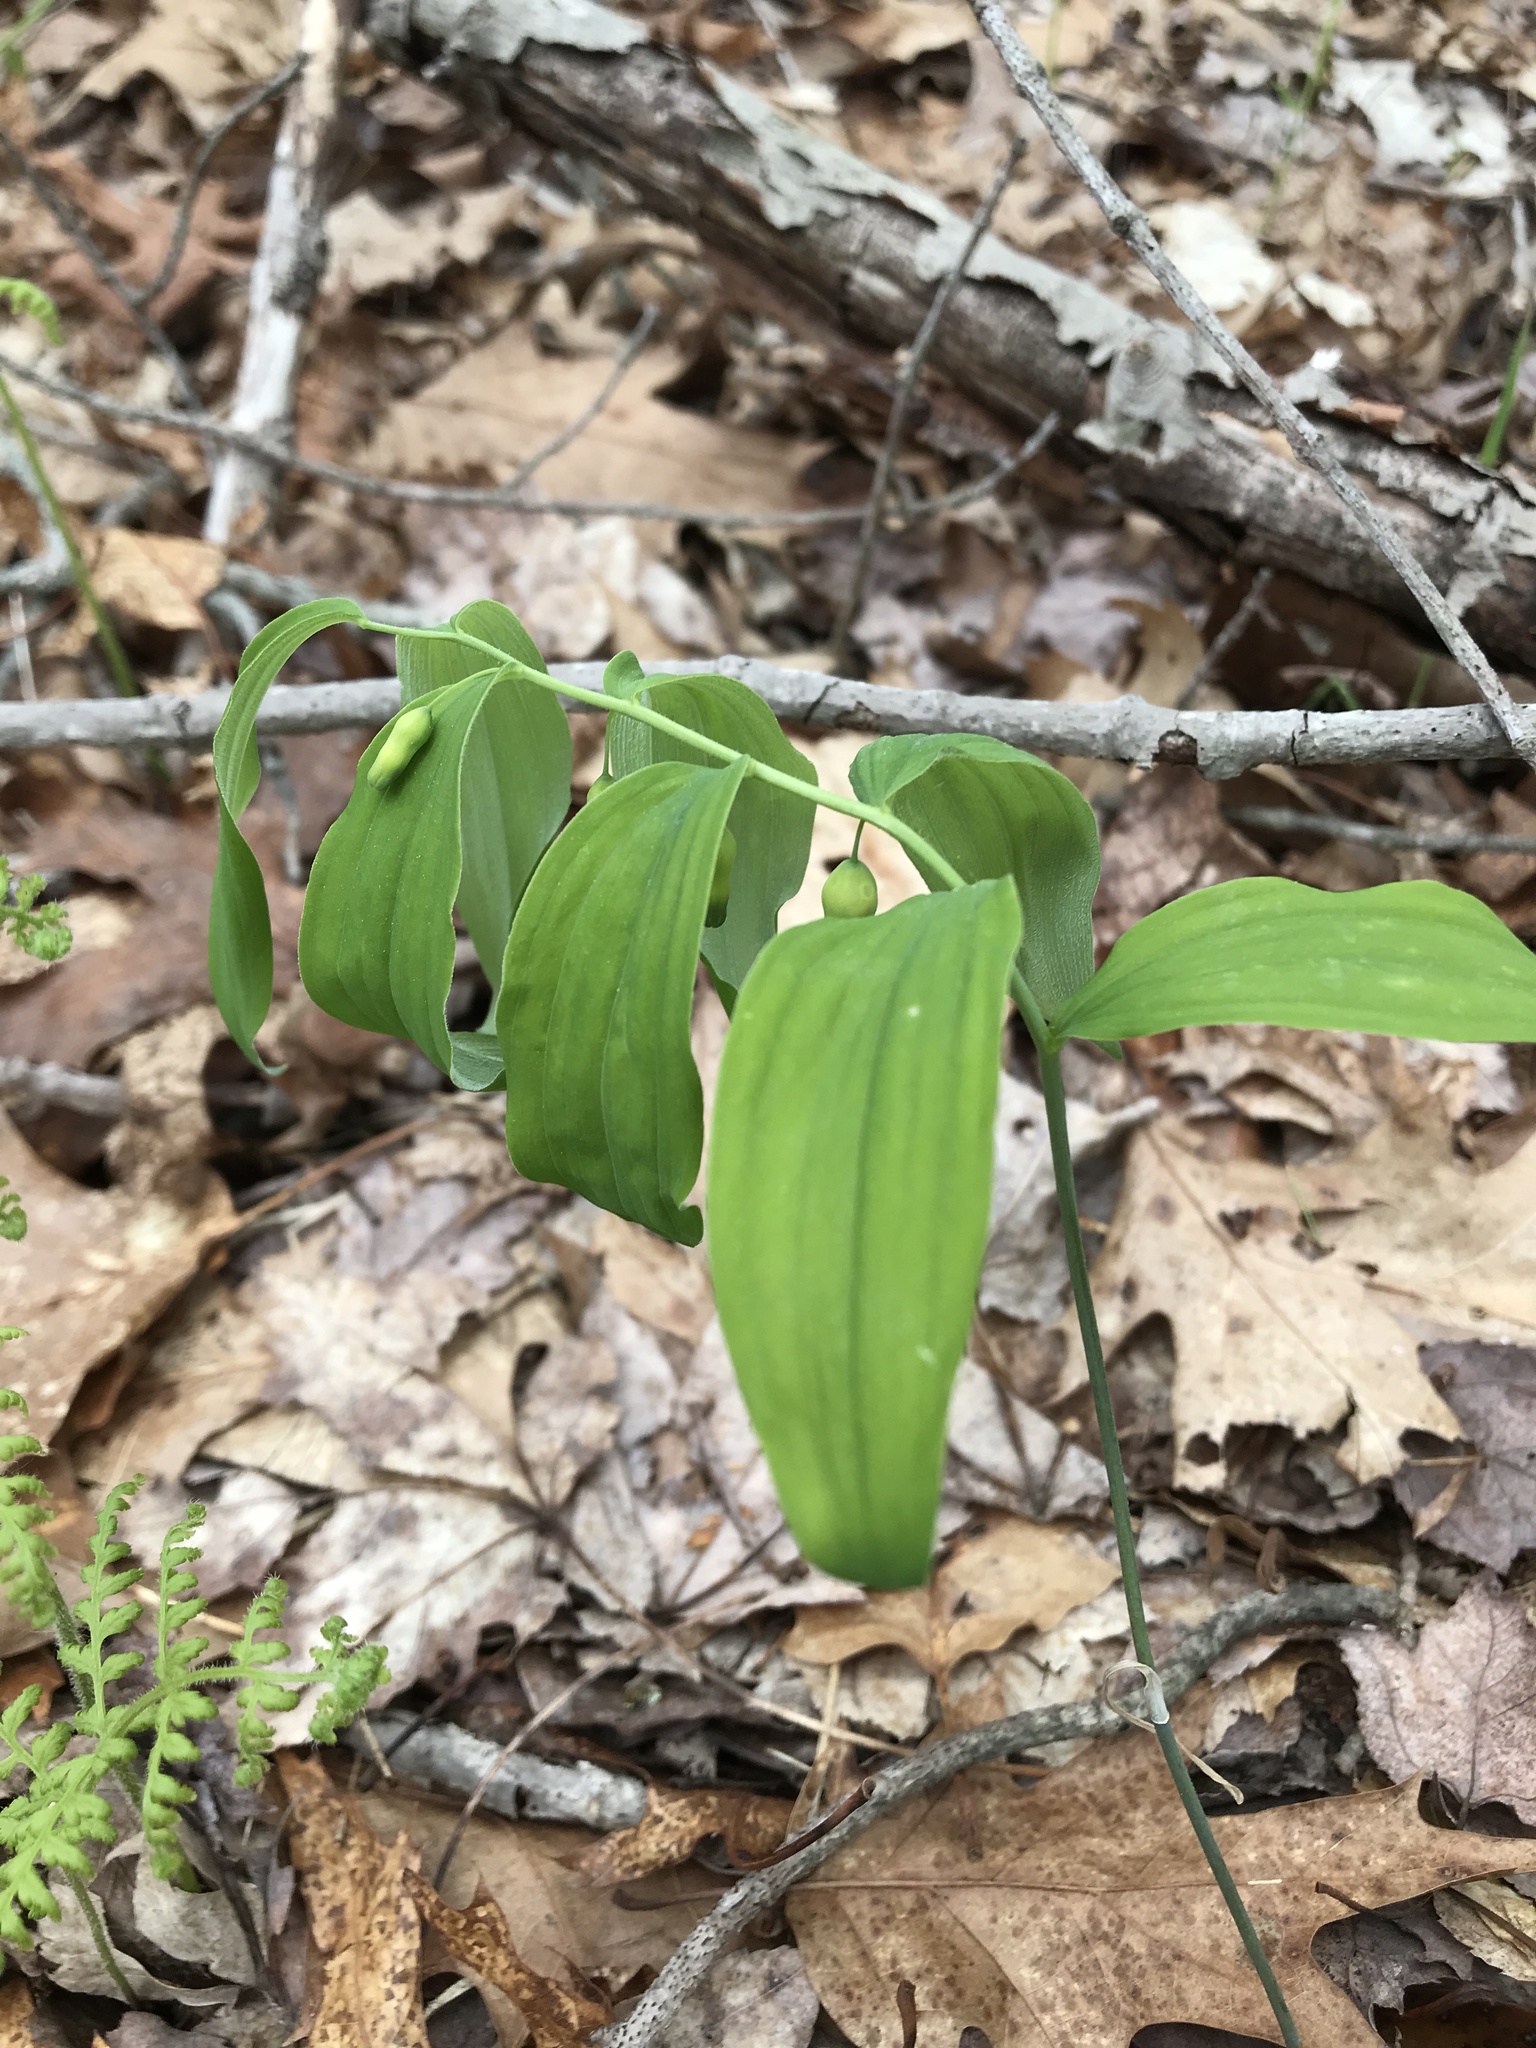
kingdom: Plantae
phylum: Tracheophyta
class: Liliopsida
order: Asparagales
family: Asparagaceae
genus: Polygonatum
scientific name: Polygonatum pubescens
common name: Downy solomon's seal
